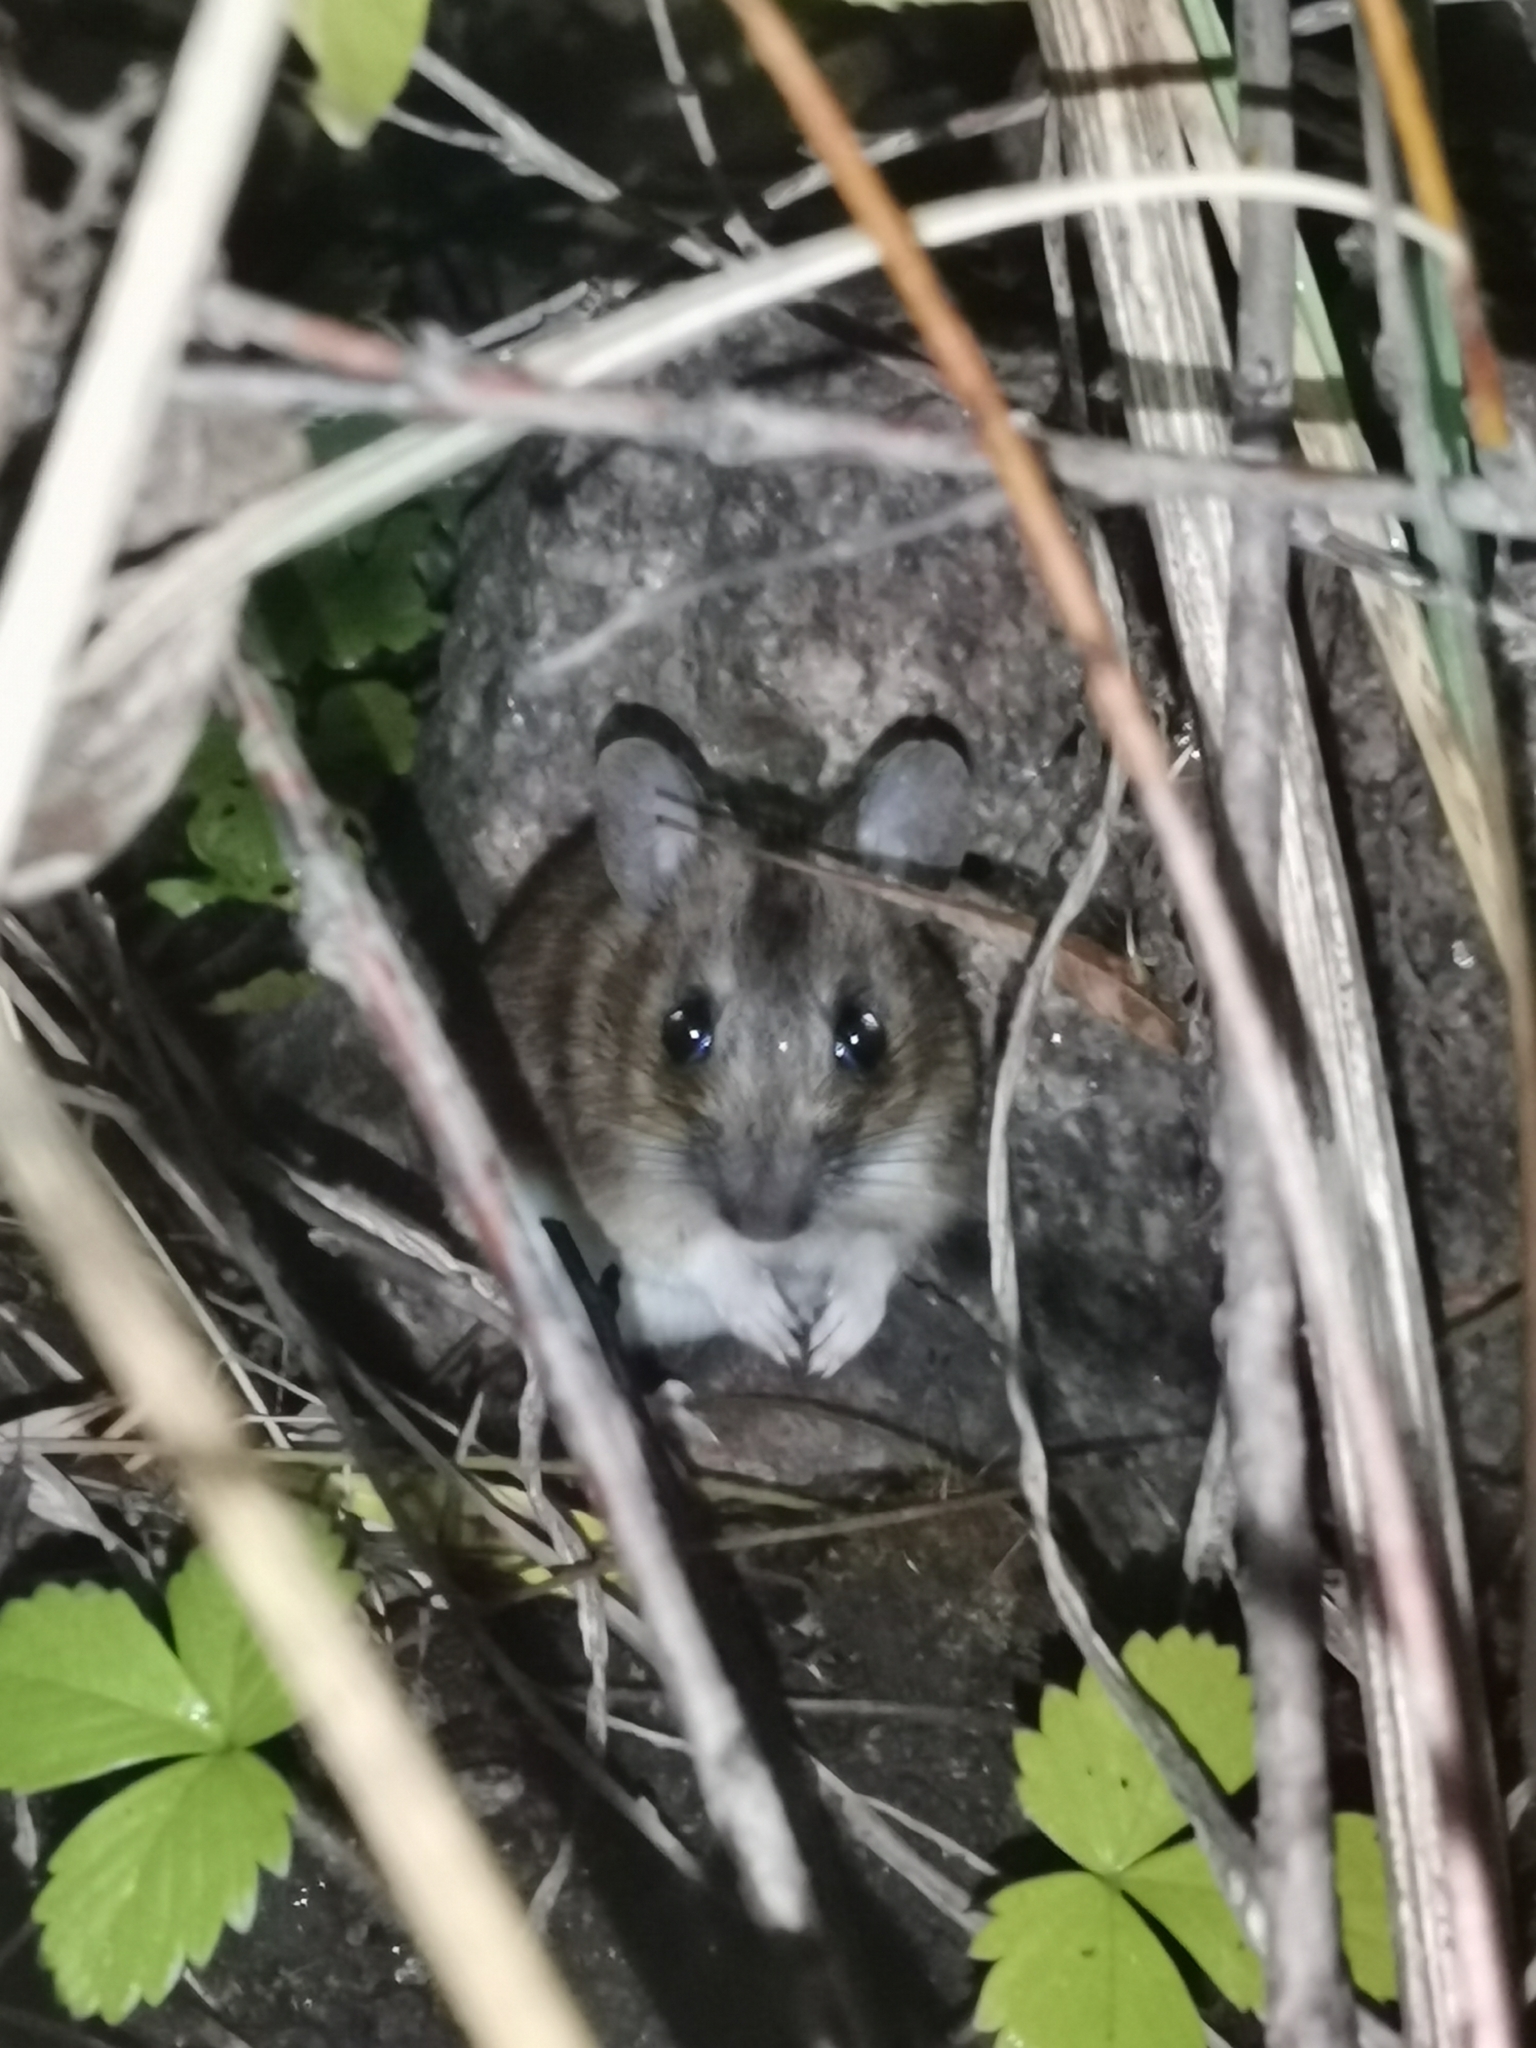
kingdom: Animalia
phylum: Chordata
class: Mammalia
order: Rodentia
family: Muridae
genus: Apodemus
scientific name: Apodemus flavicollis
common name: Yellow-necked field mouse
